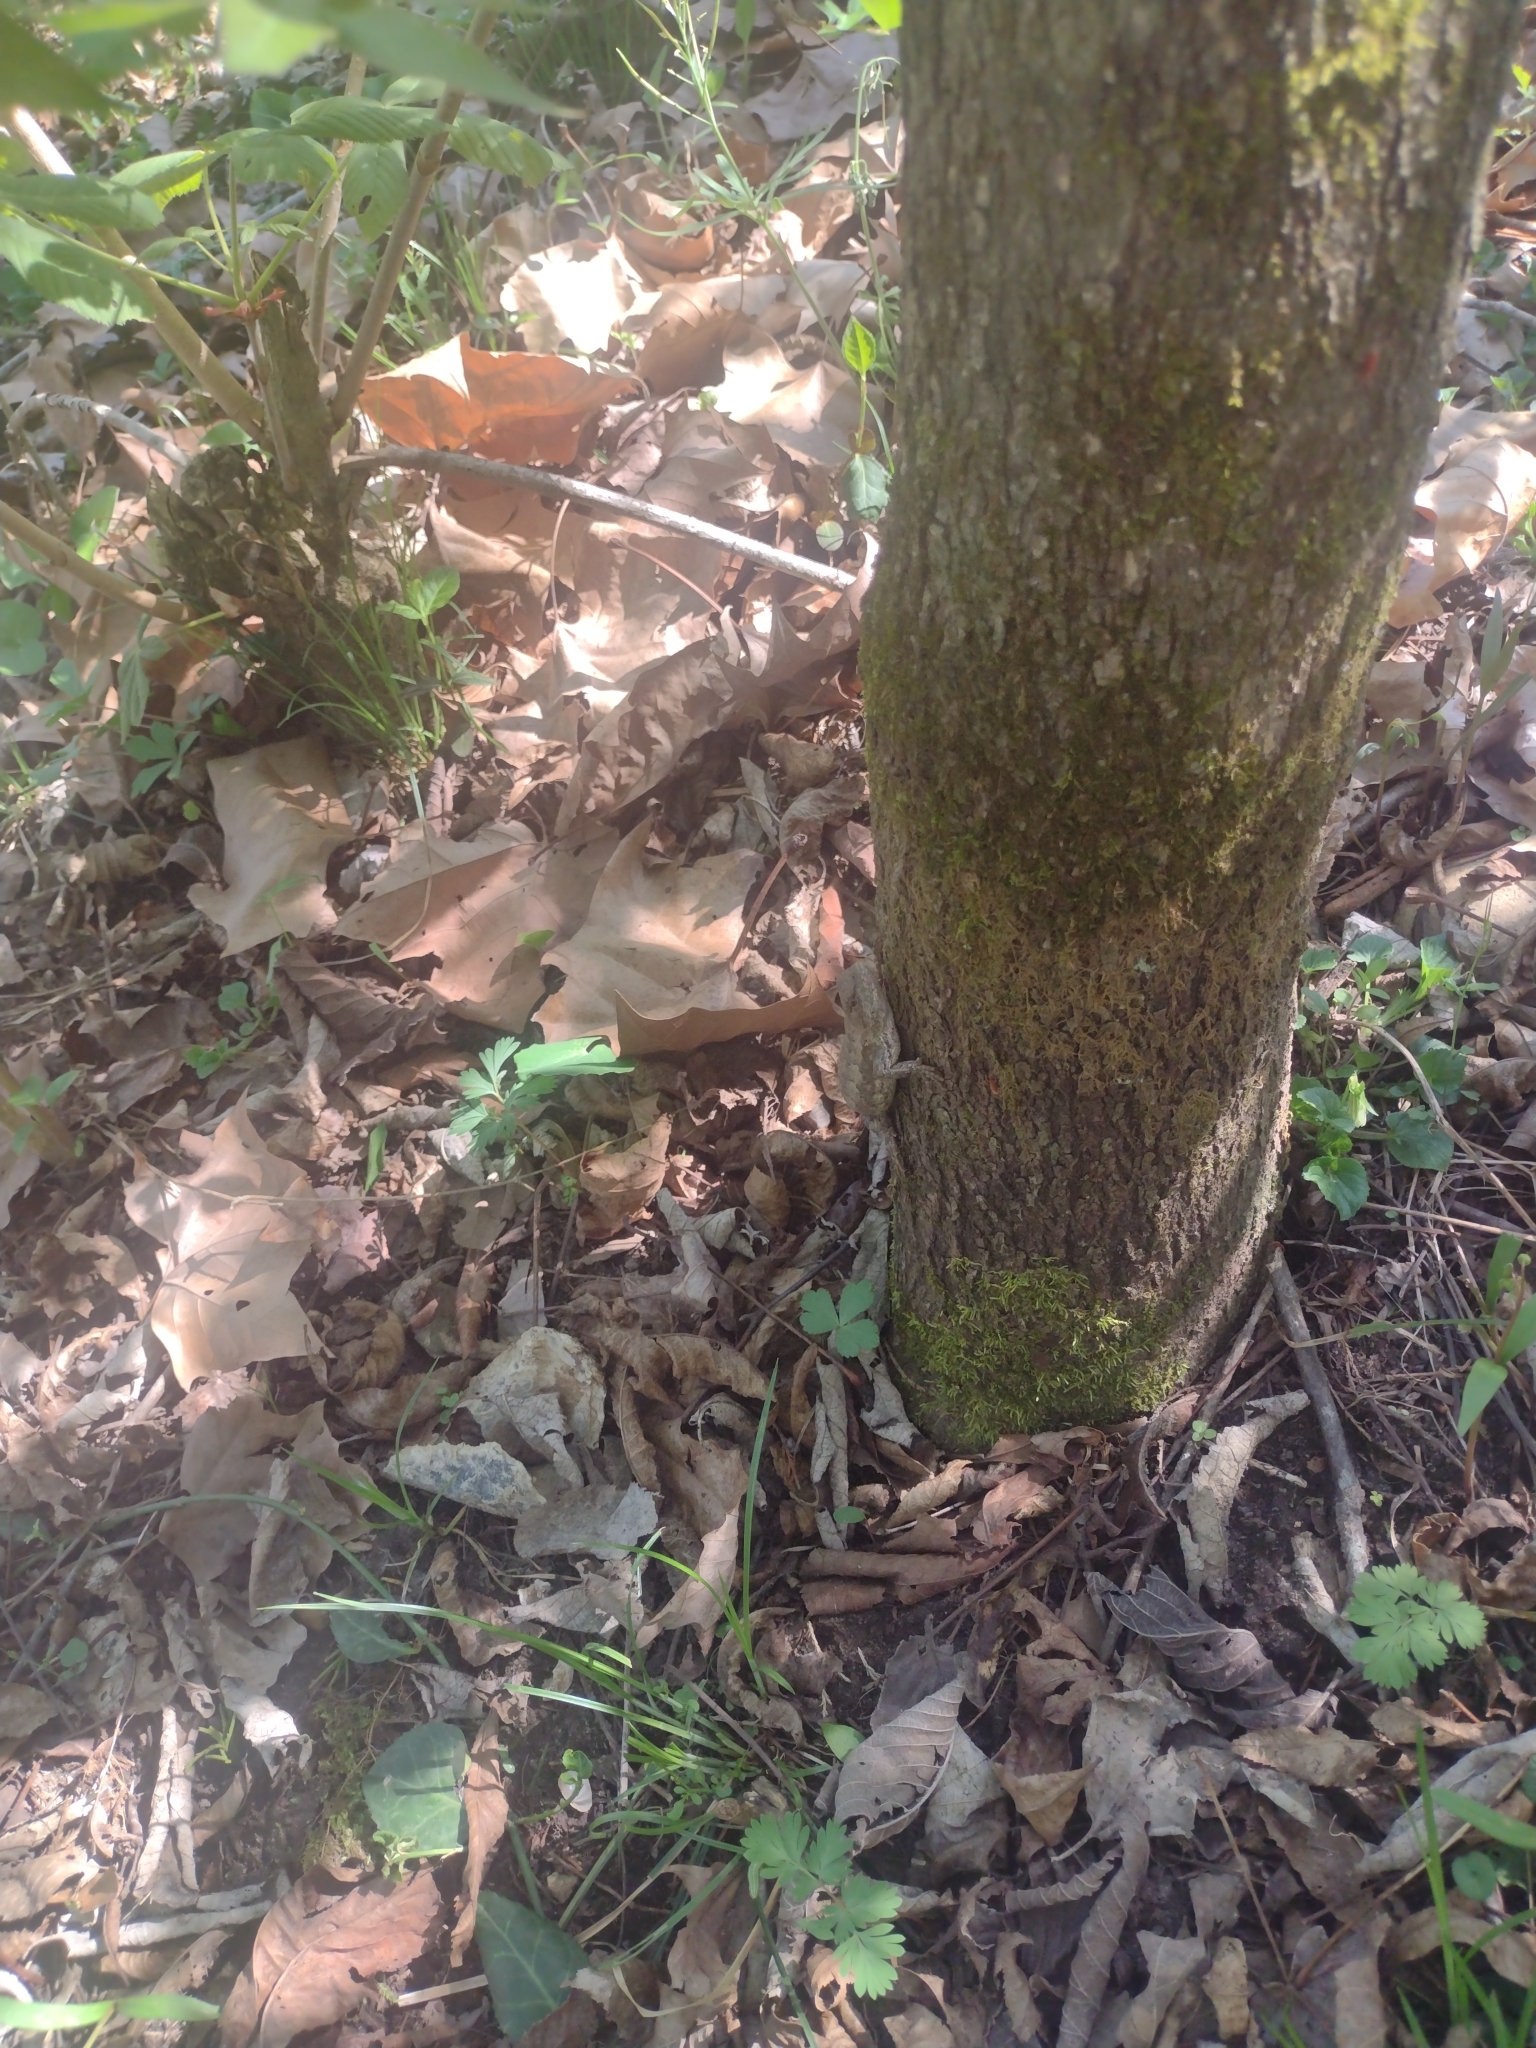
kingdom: Animalia
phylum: Chordata
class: Squamata
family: Phrynosomatidae
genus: Sceloporus
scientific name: Sceloporus consobrinus
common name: Southern prairie lizard
